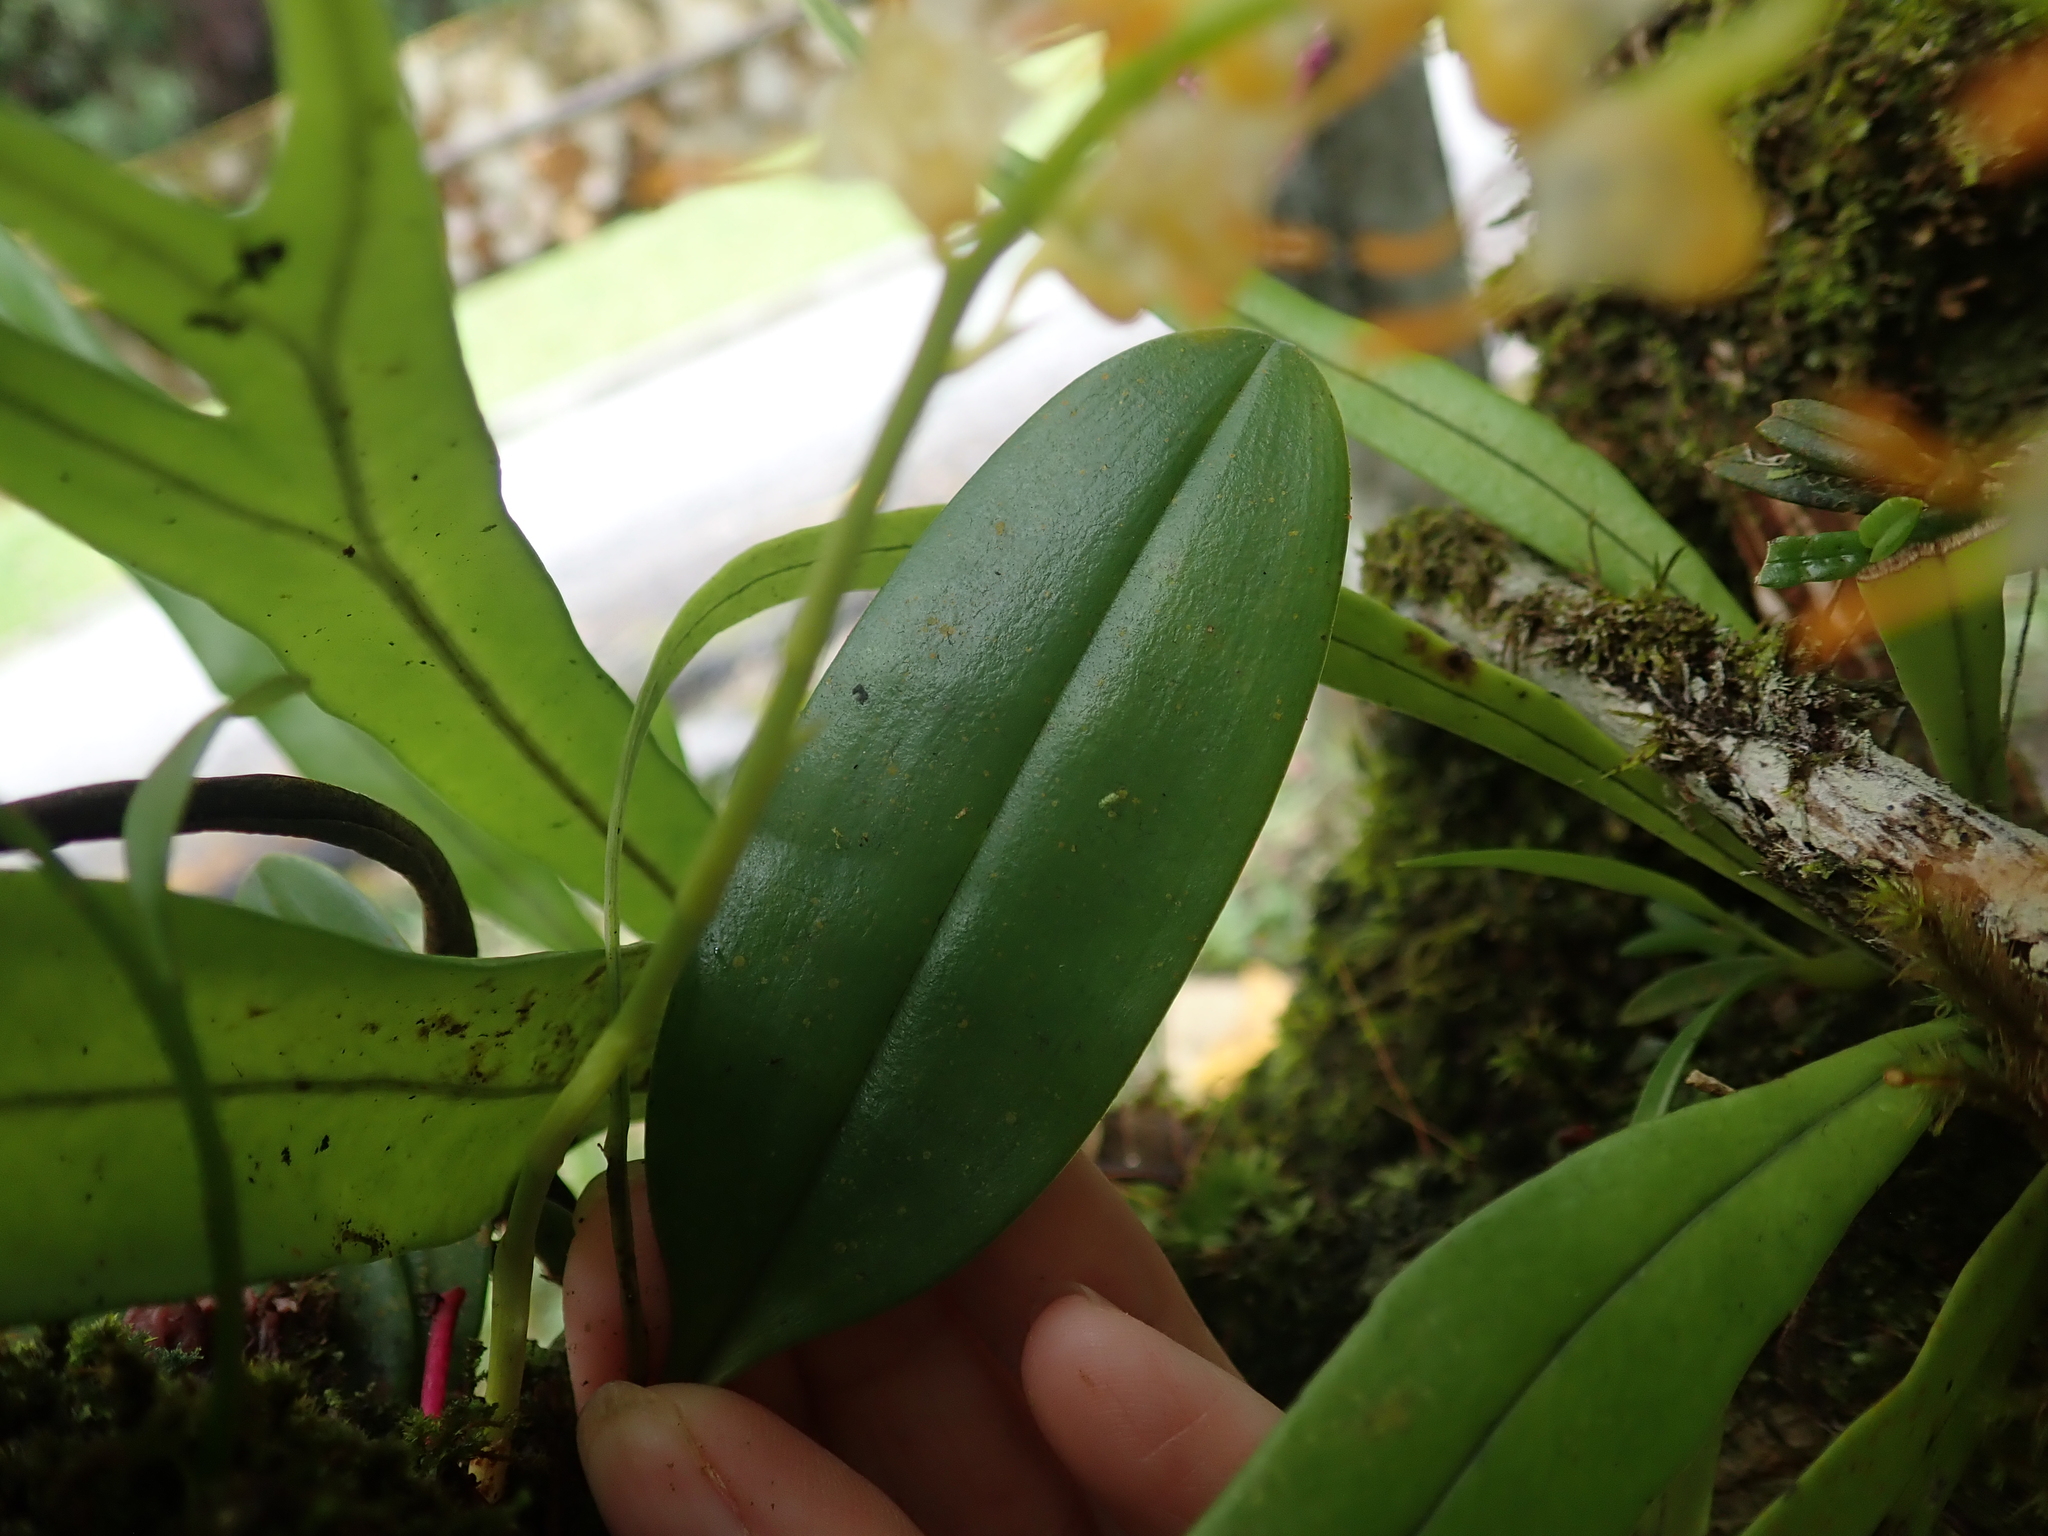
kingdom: Plantae
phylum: Tracheophyta
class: Liliopsida
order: Asparagales
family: Orchidaceae
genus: Bulbophyllum
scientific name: Bulbophyllum longimucronatum
